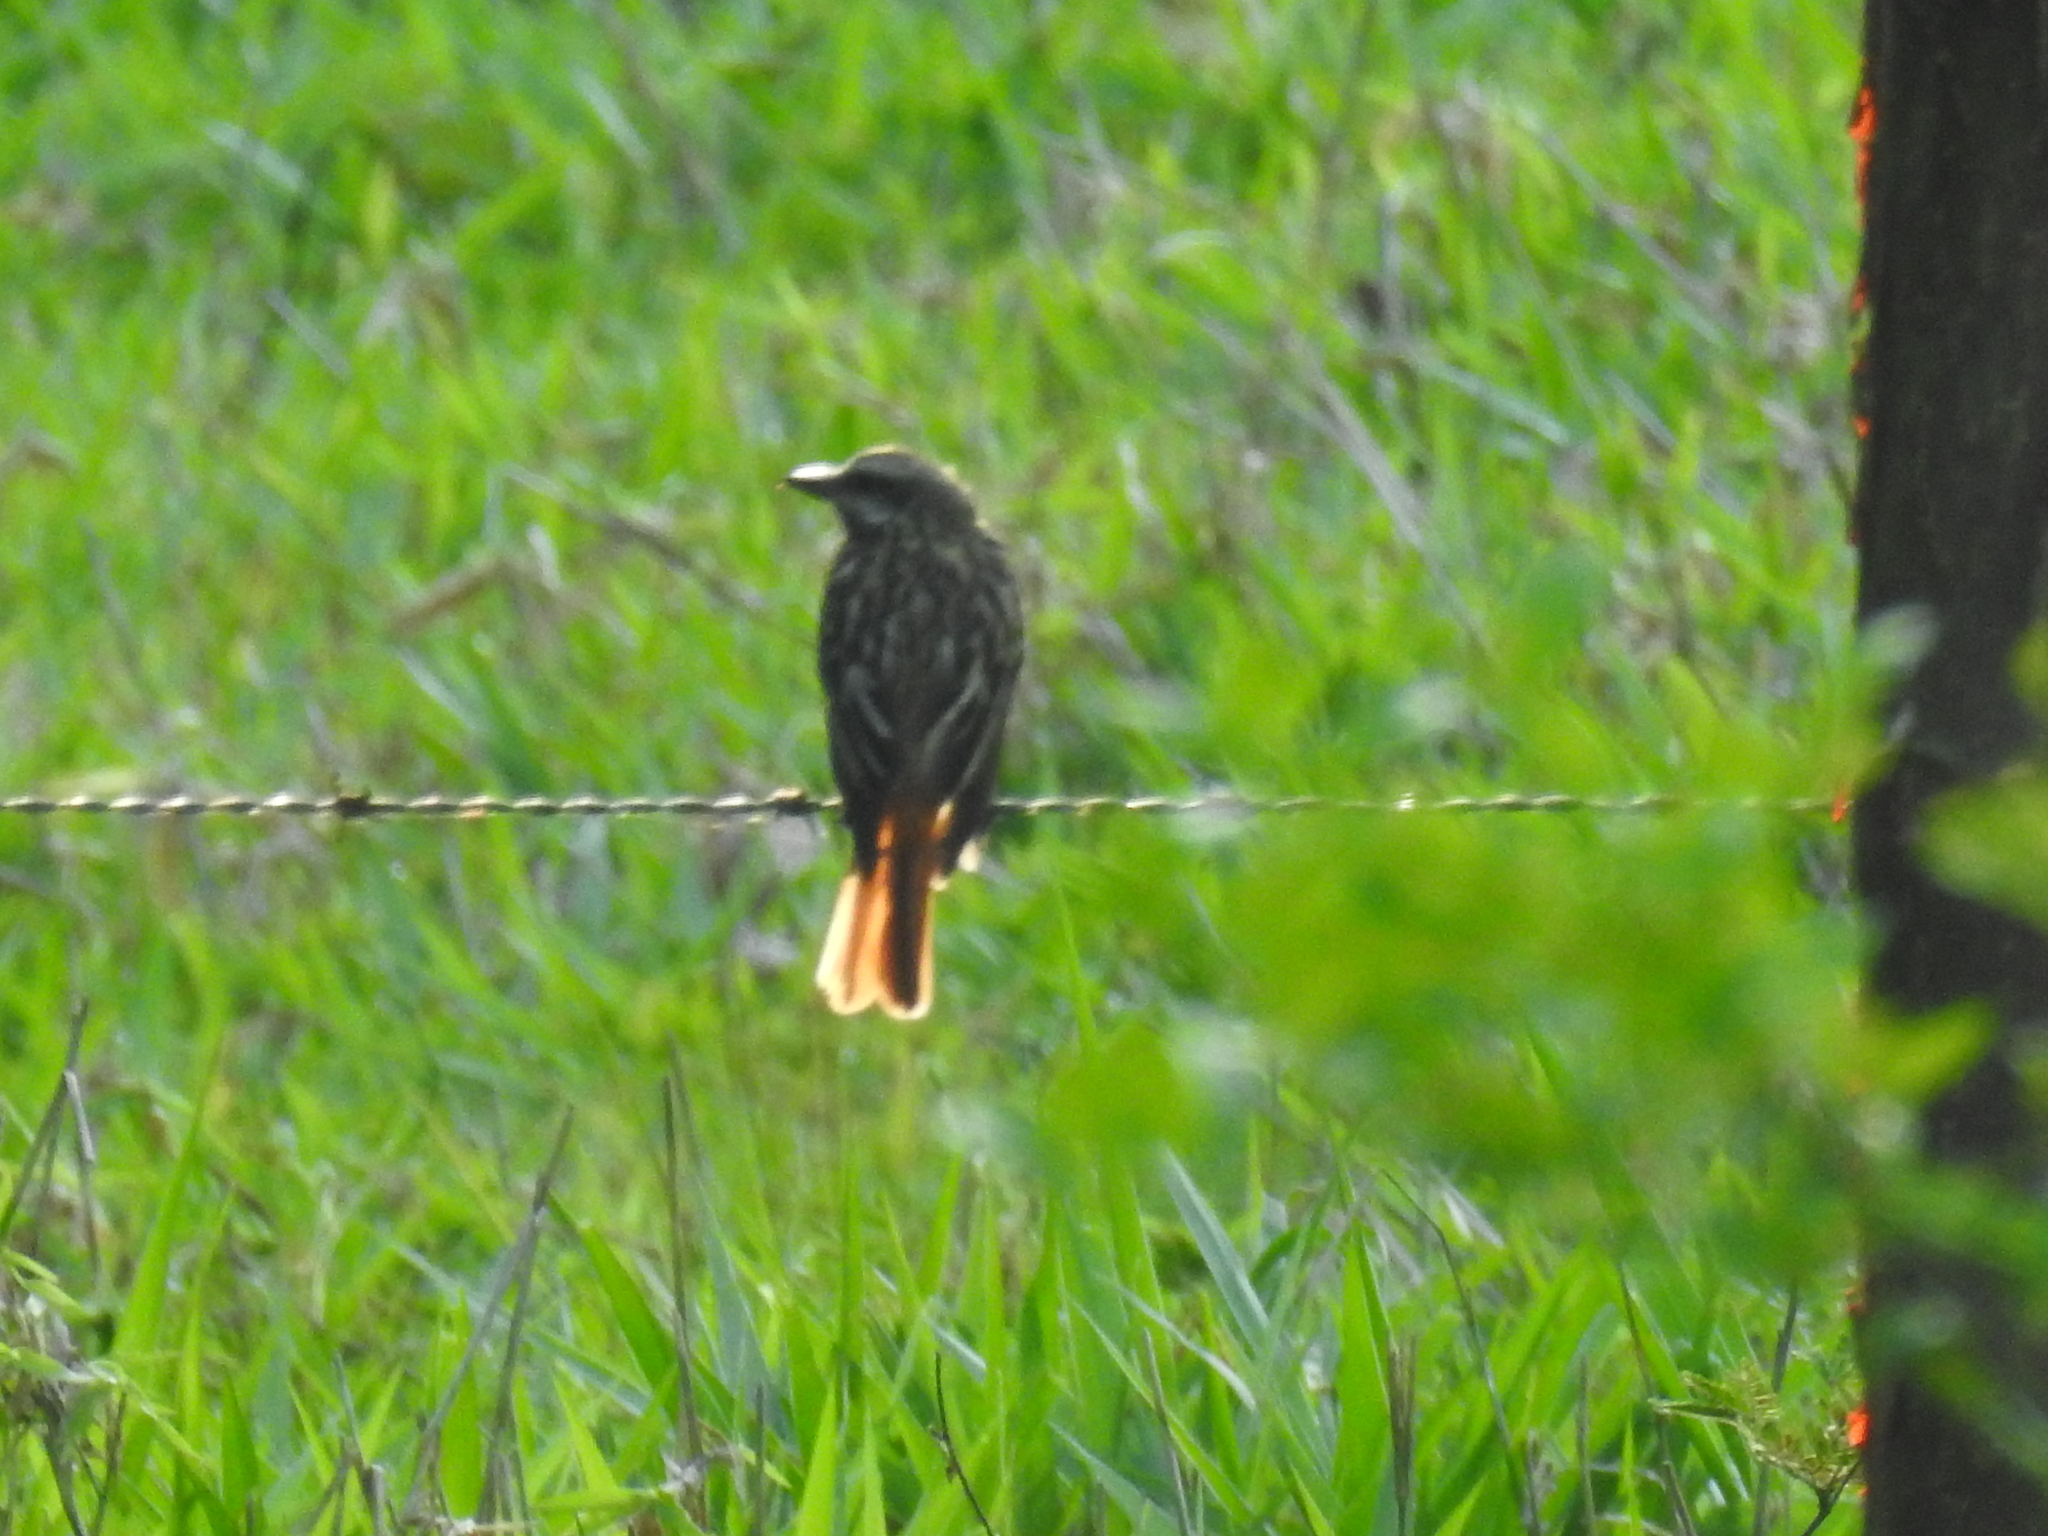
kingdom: Animalia
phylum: Chordata
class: Aves
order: Passeriformes
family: Tyrannidae
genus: Myiodynastes
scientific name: Myiodynastes luteiventris
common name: Sulphur-bellied flycatcher
